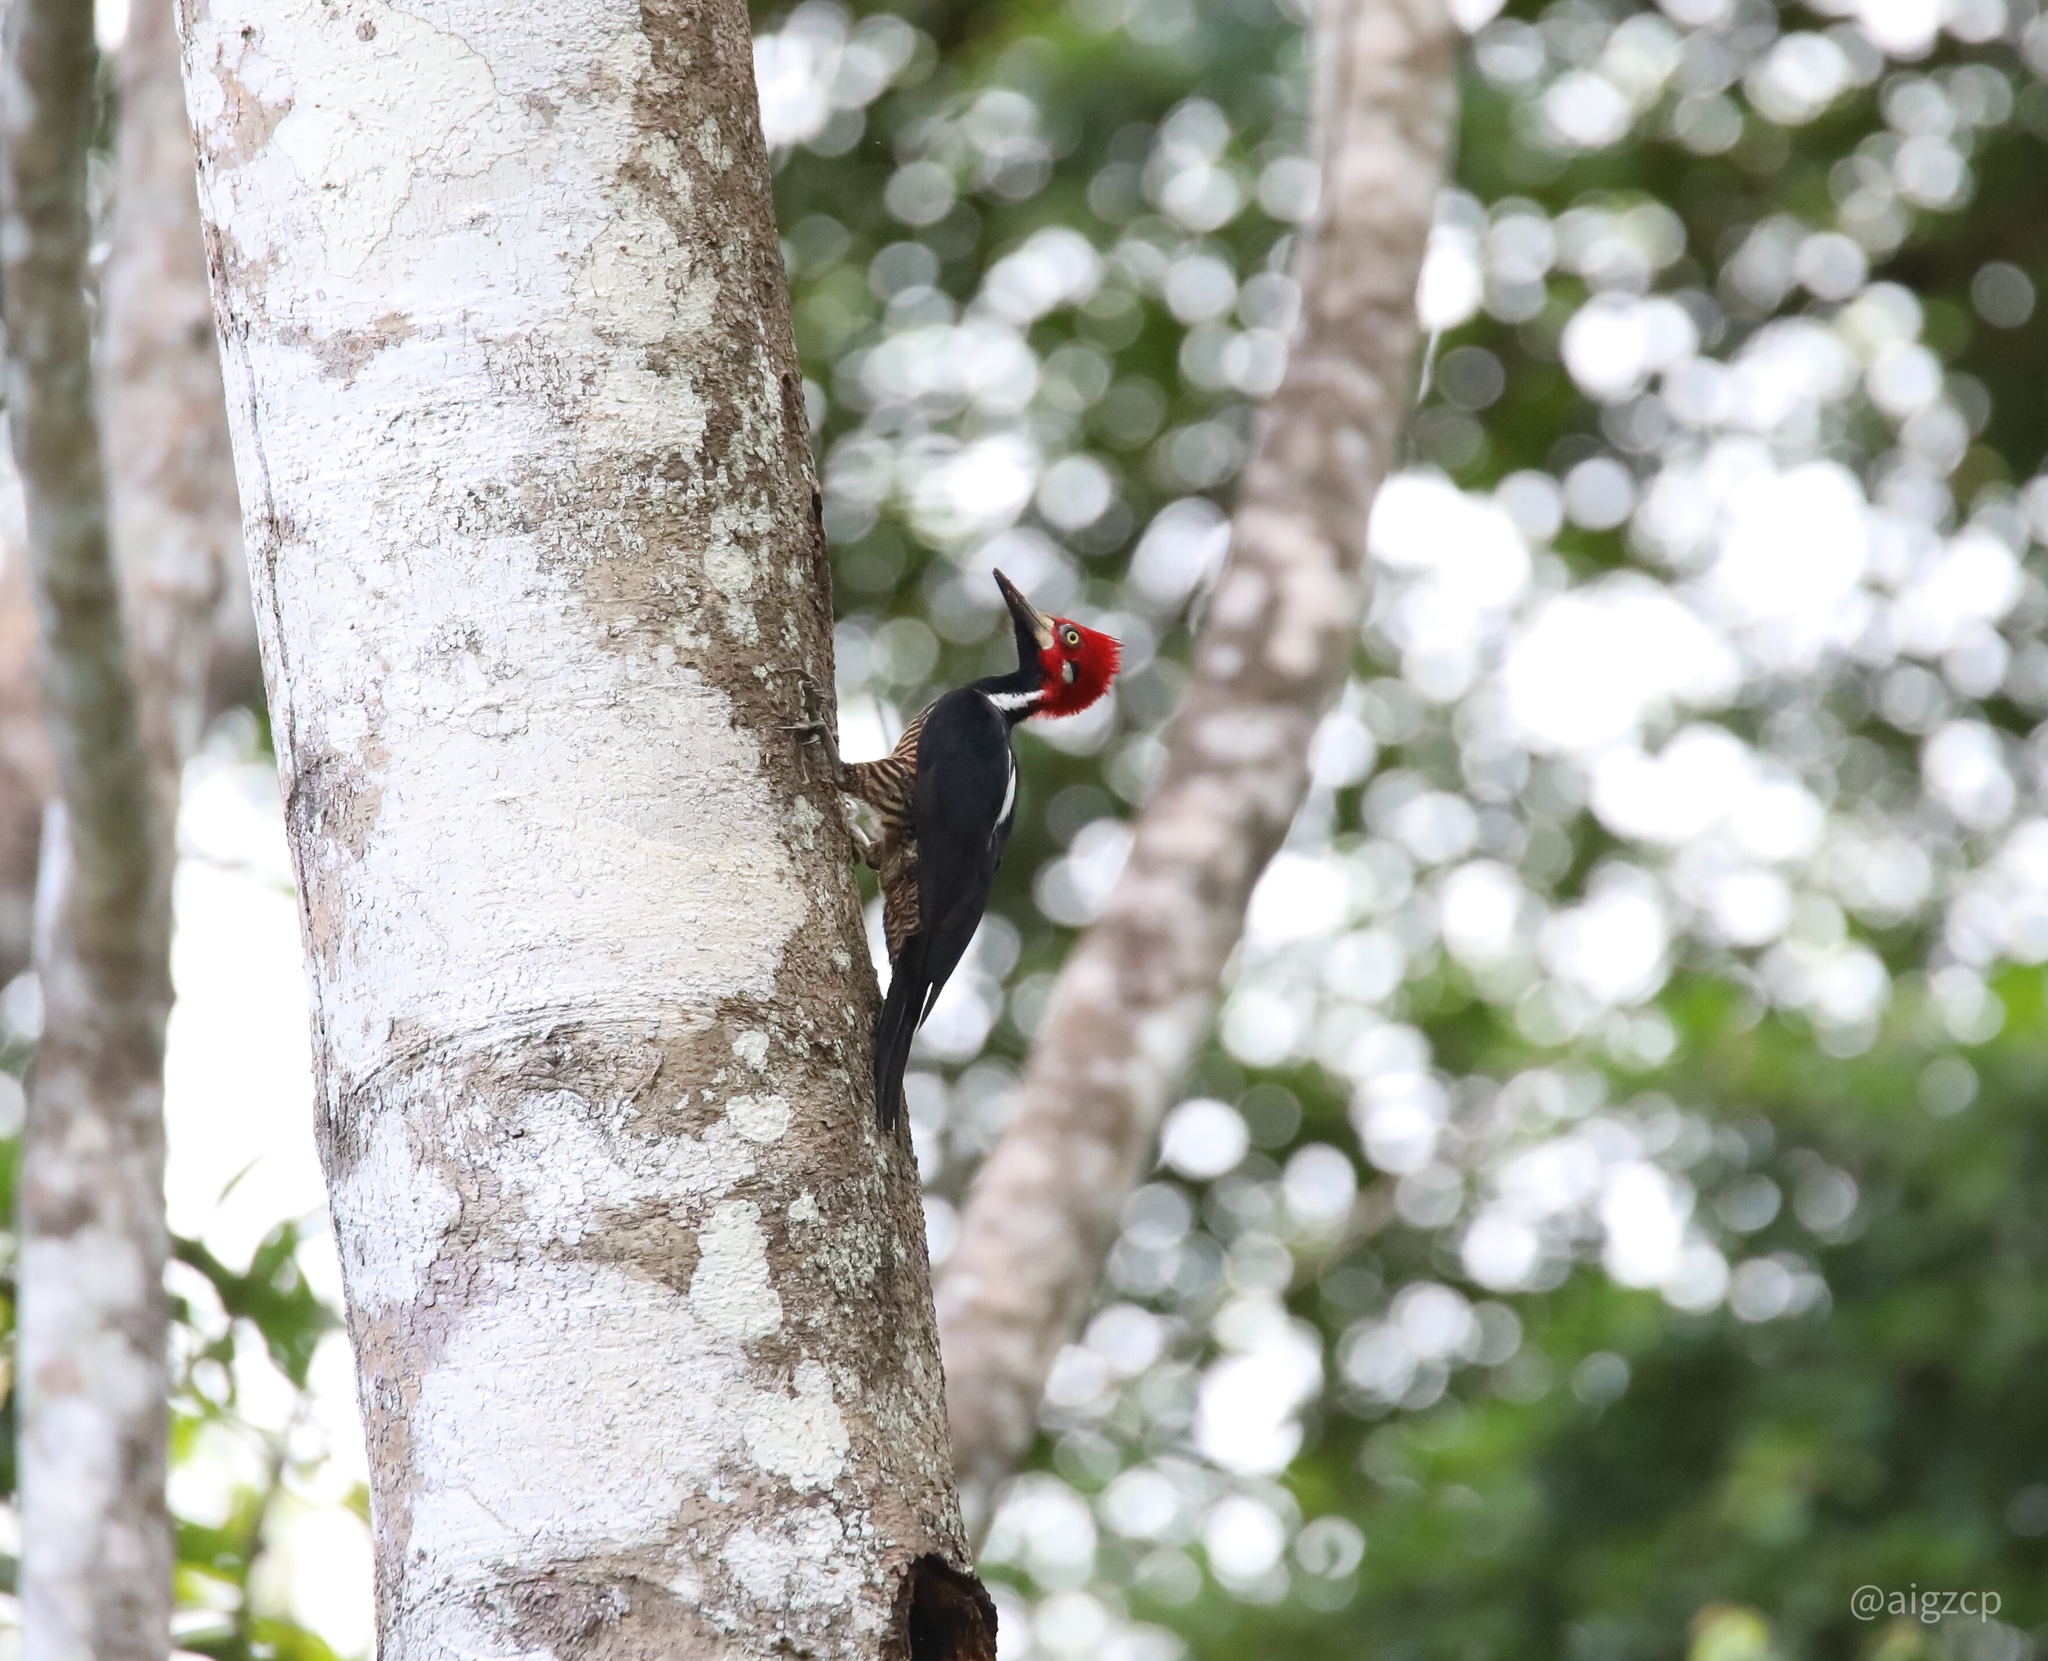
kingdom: Animalia
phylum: Chordata
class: Aves
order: Piciformes
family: Picidae
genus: Campephilus
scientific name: Campephilus melanoleucos
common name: Crimson-crested woodpecker
